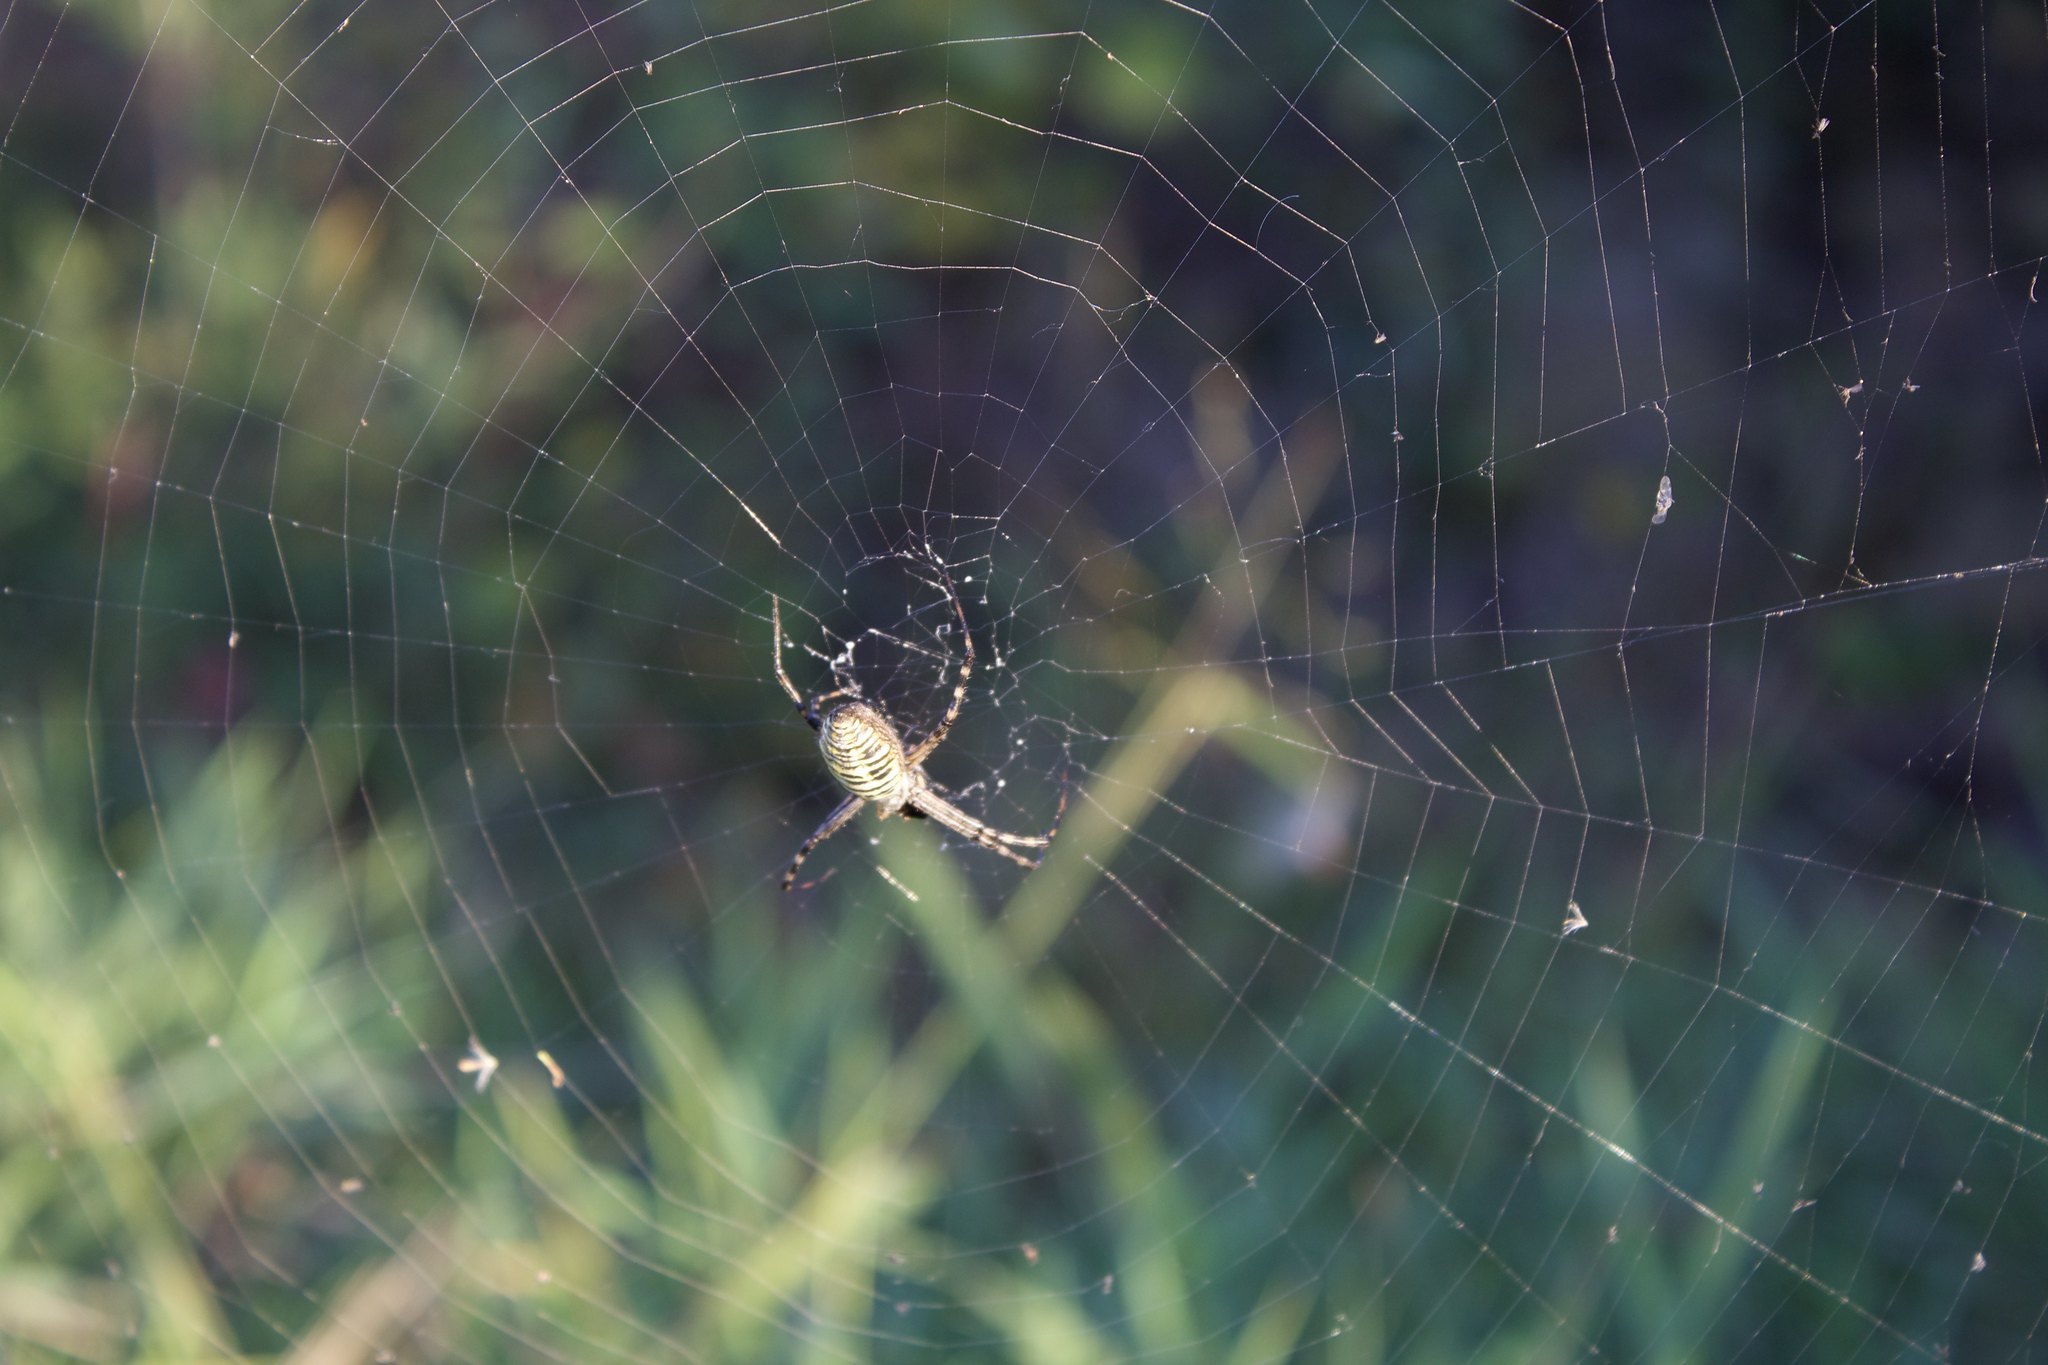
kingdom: Animalia
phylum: Arthropoda
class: Arachnida
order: Araneae
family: Araneidae
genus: Argiope
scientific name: Argiope trifasciata
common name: Banded garden spider
